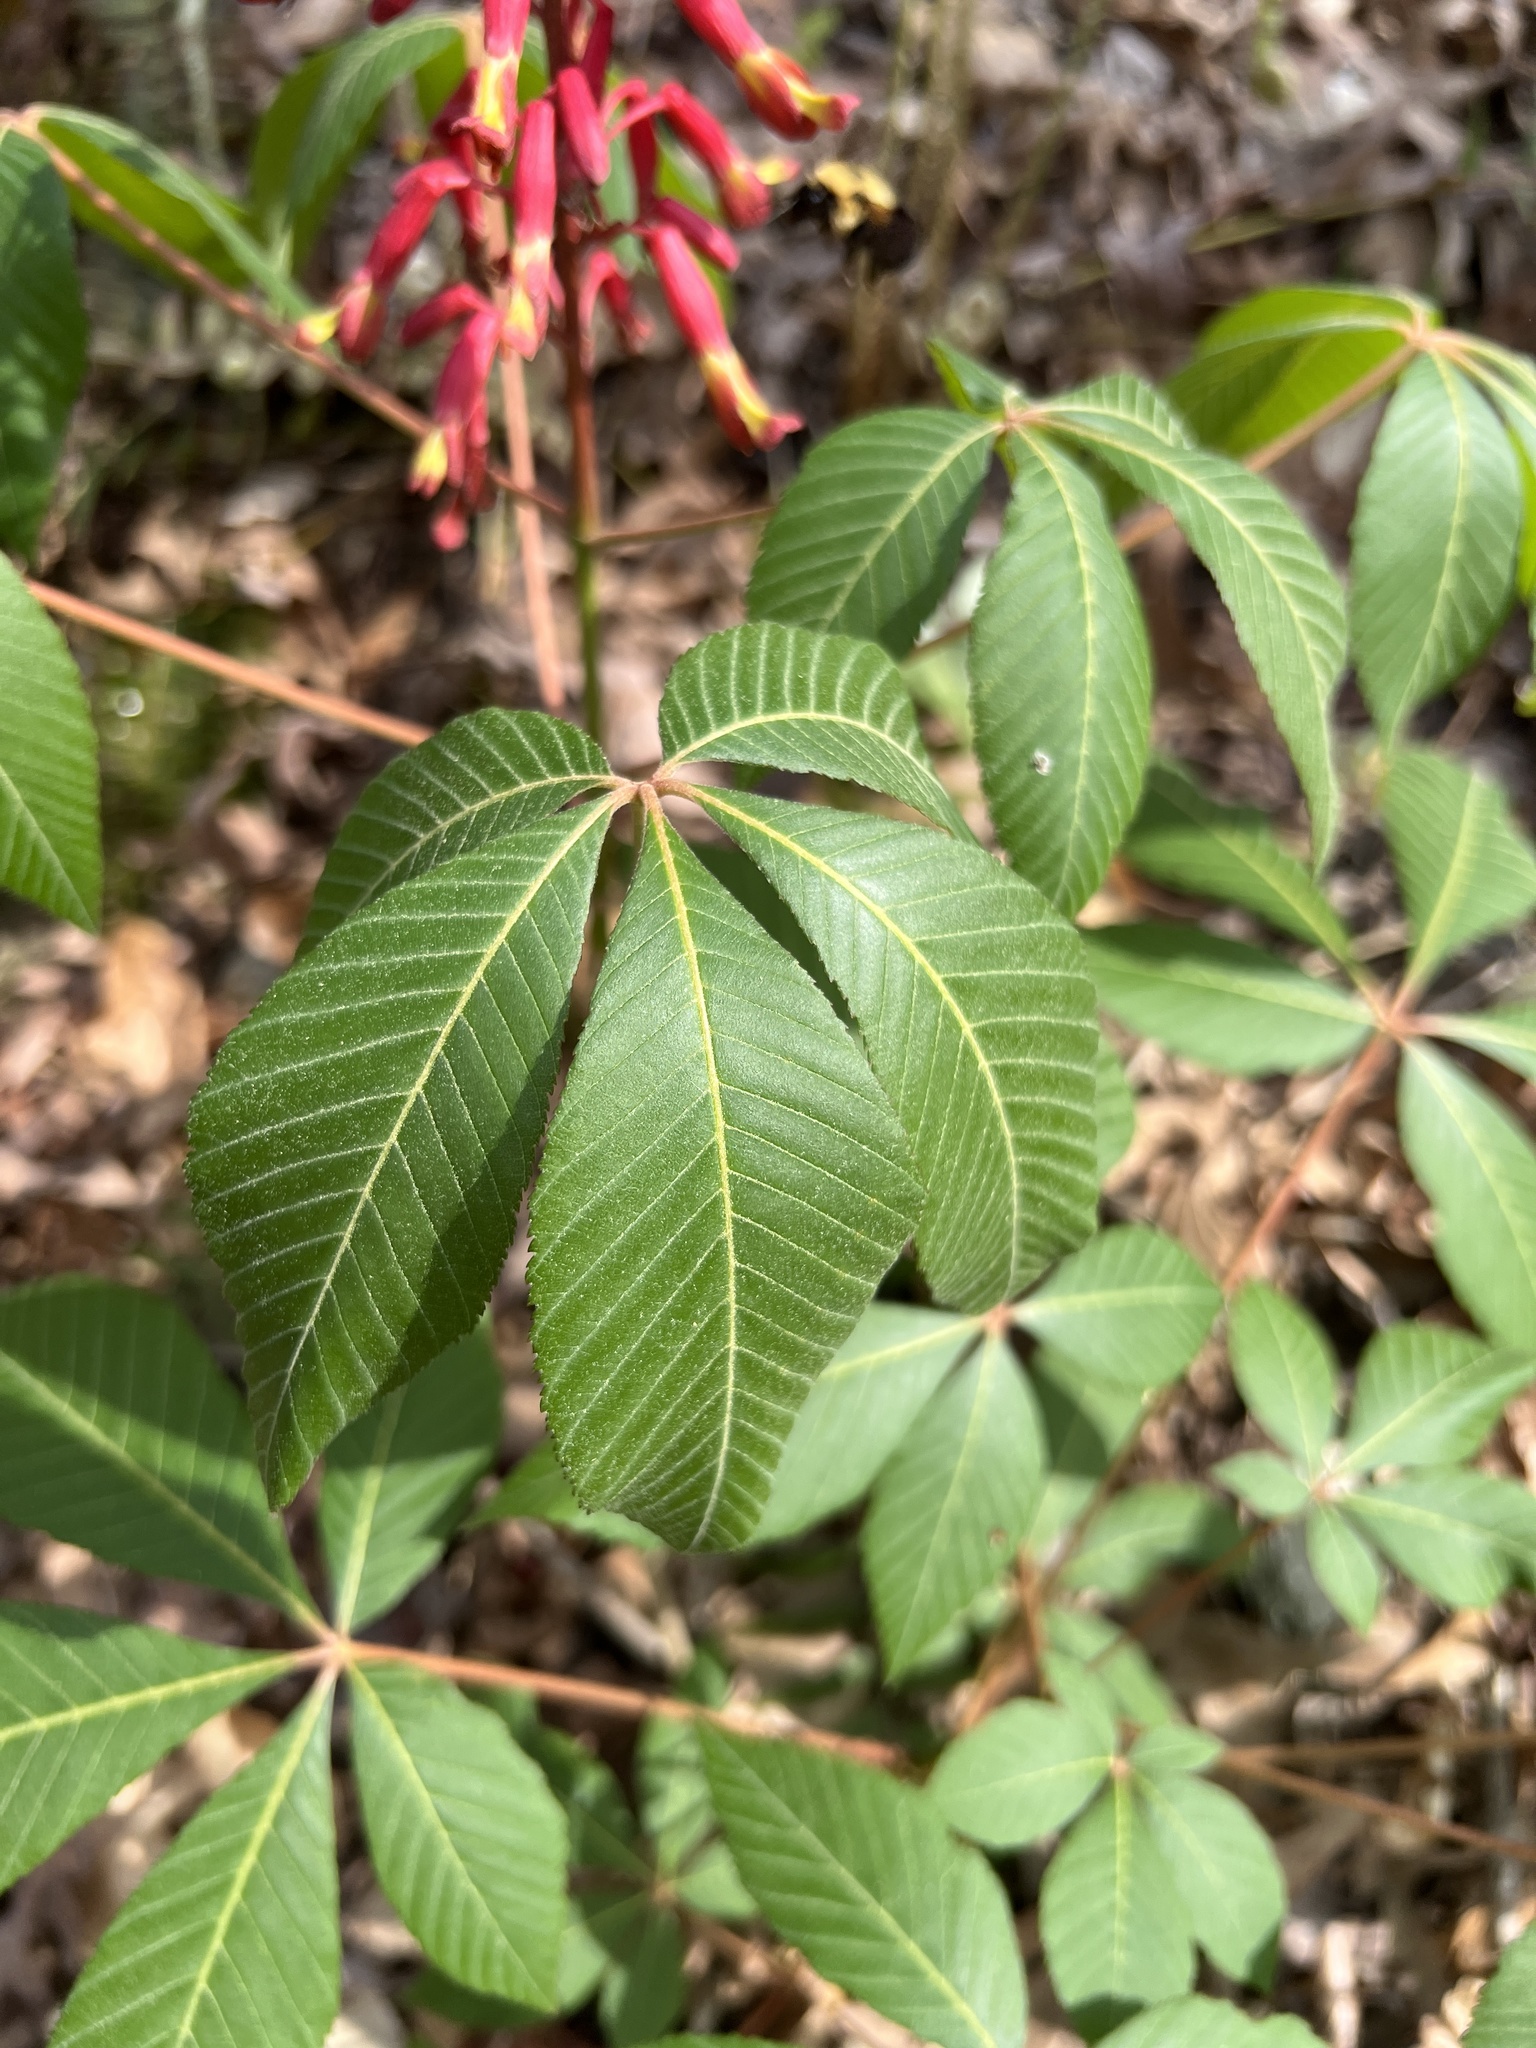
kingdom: Plantae
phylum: Tracheophyta
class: Magnoliopsida
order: Sapindales
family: Sapindaceae
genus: Aesculus
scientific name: Aesculus pavia
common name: Red buckeye
